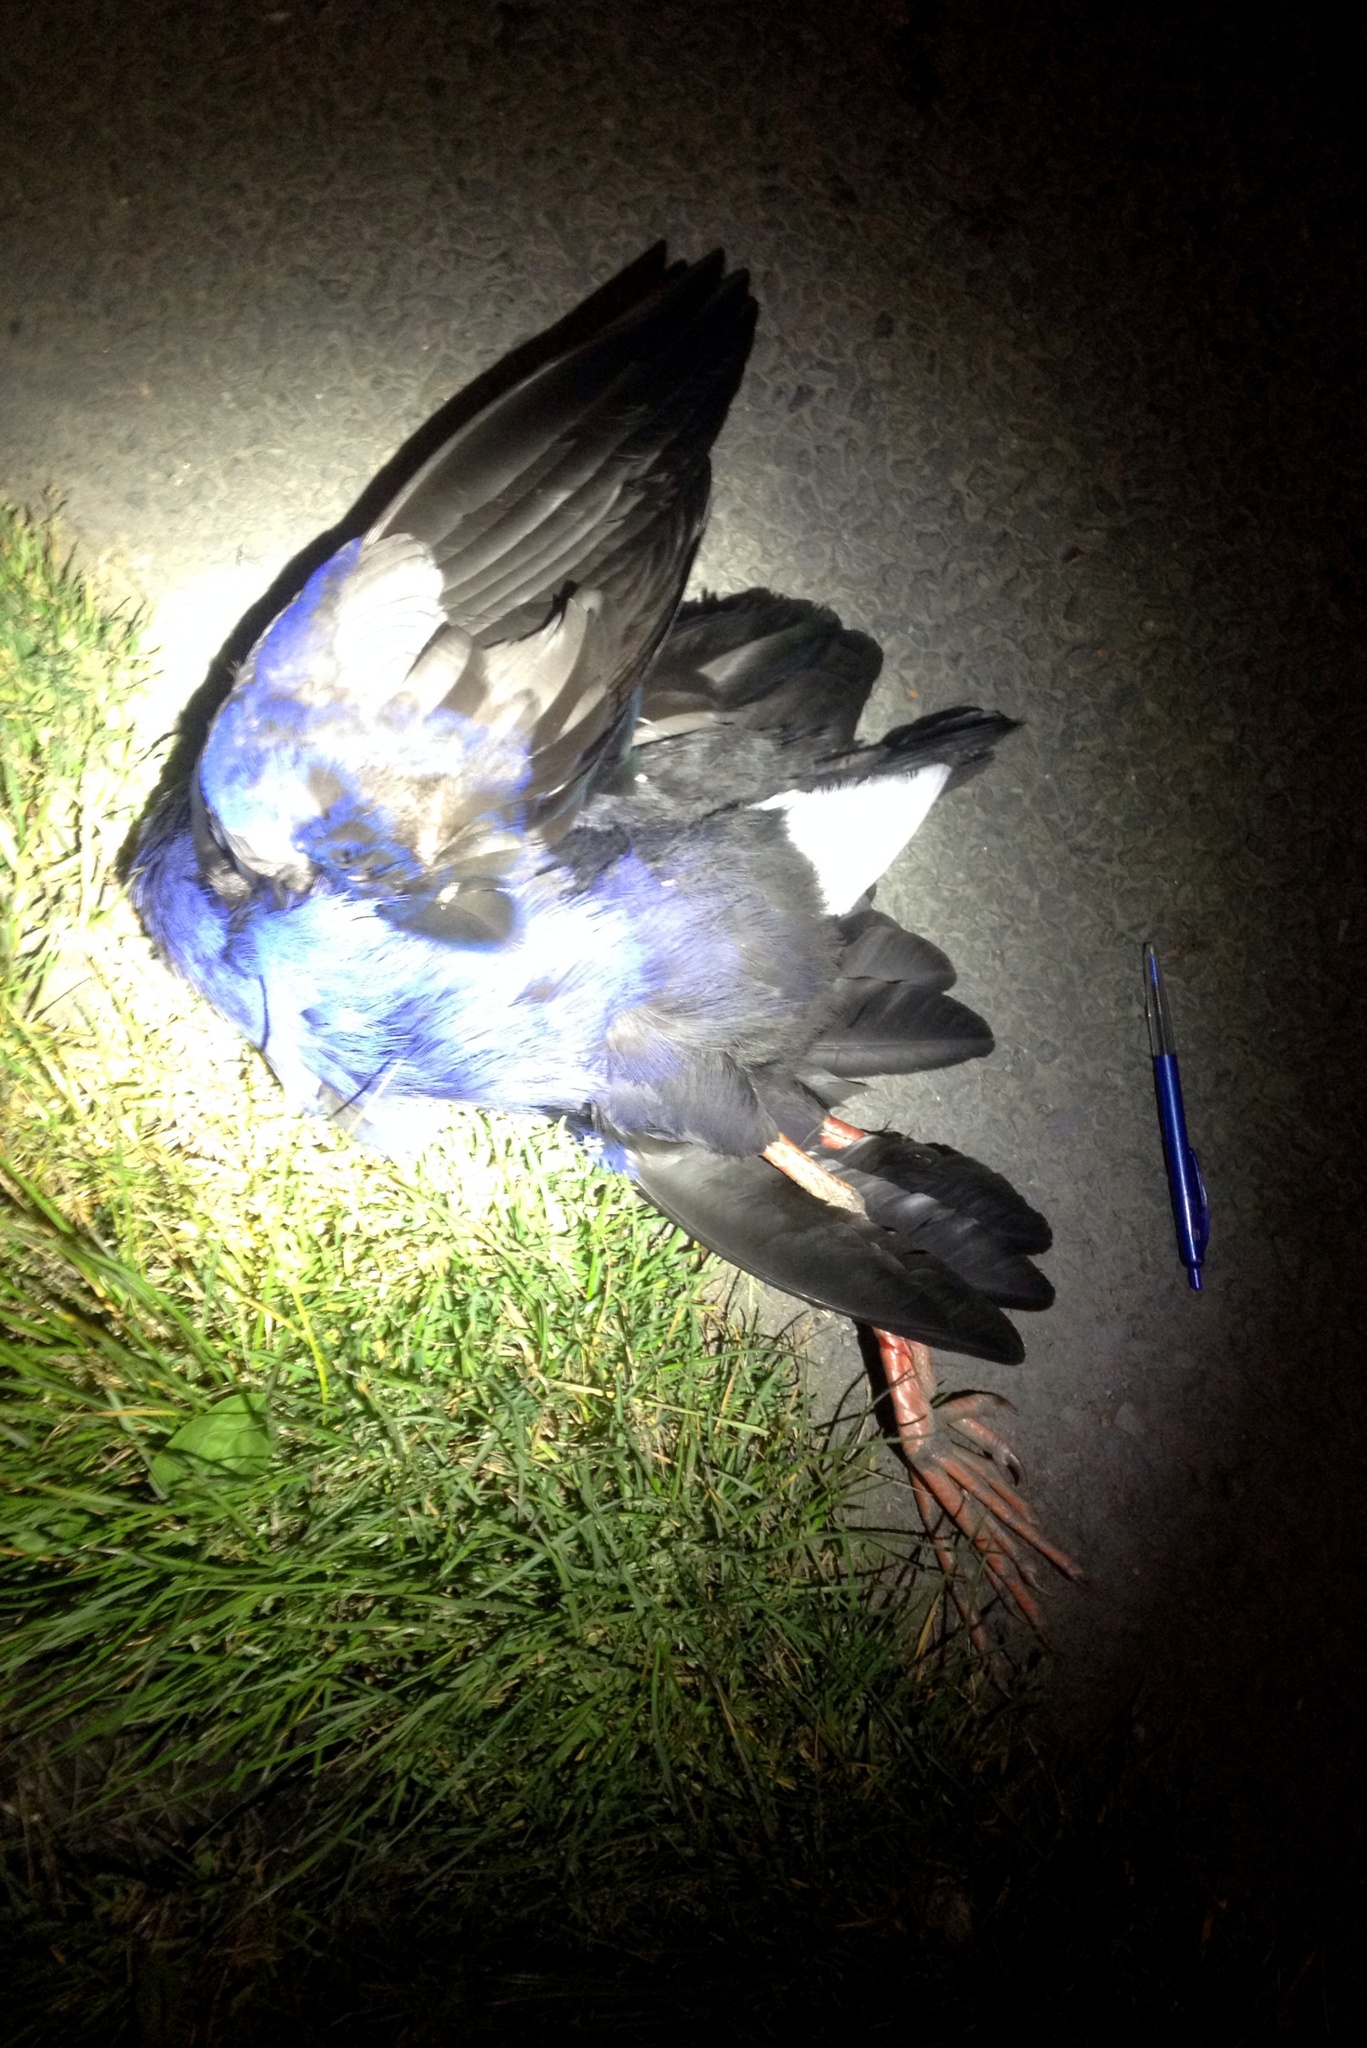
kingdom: Animalia
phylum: Chordata
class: Aves
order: Gruiformes
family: Rallidae
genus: Porphyrio
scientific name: Porphyrio melanotus
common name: Australasian swamphen
